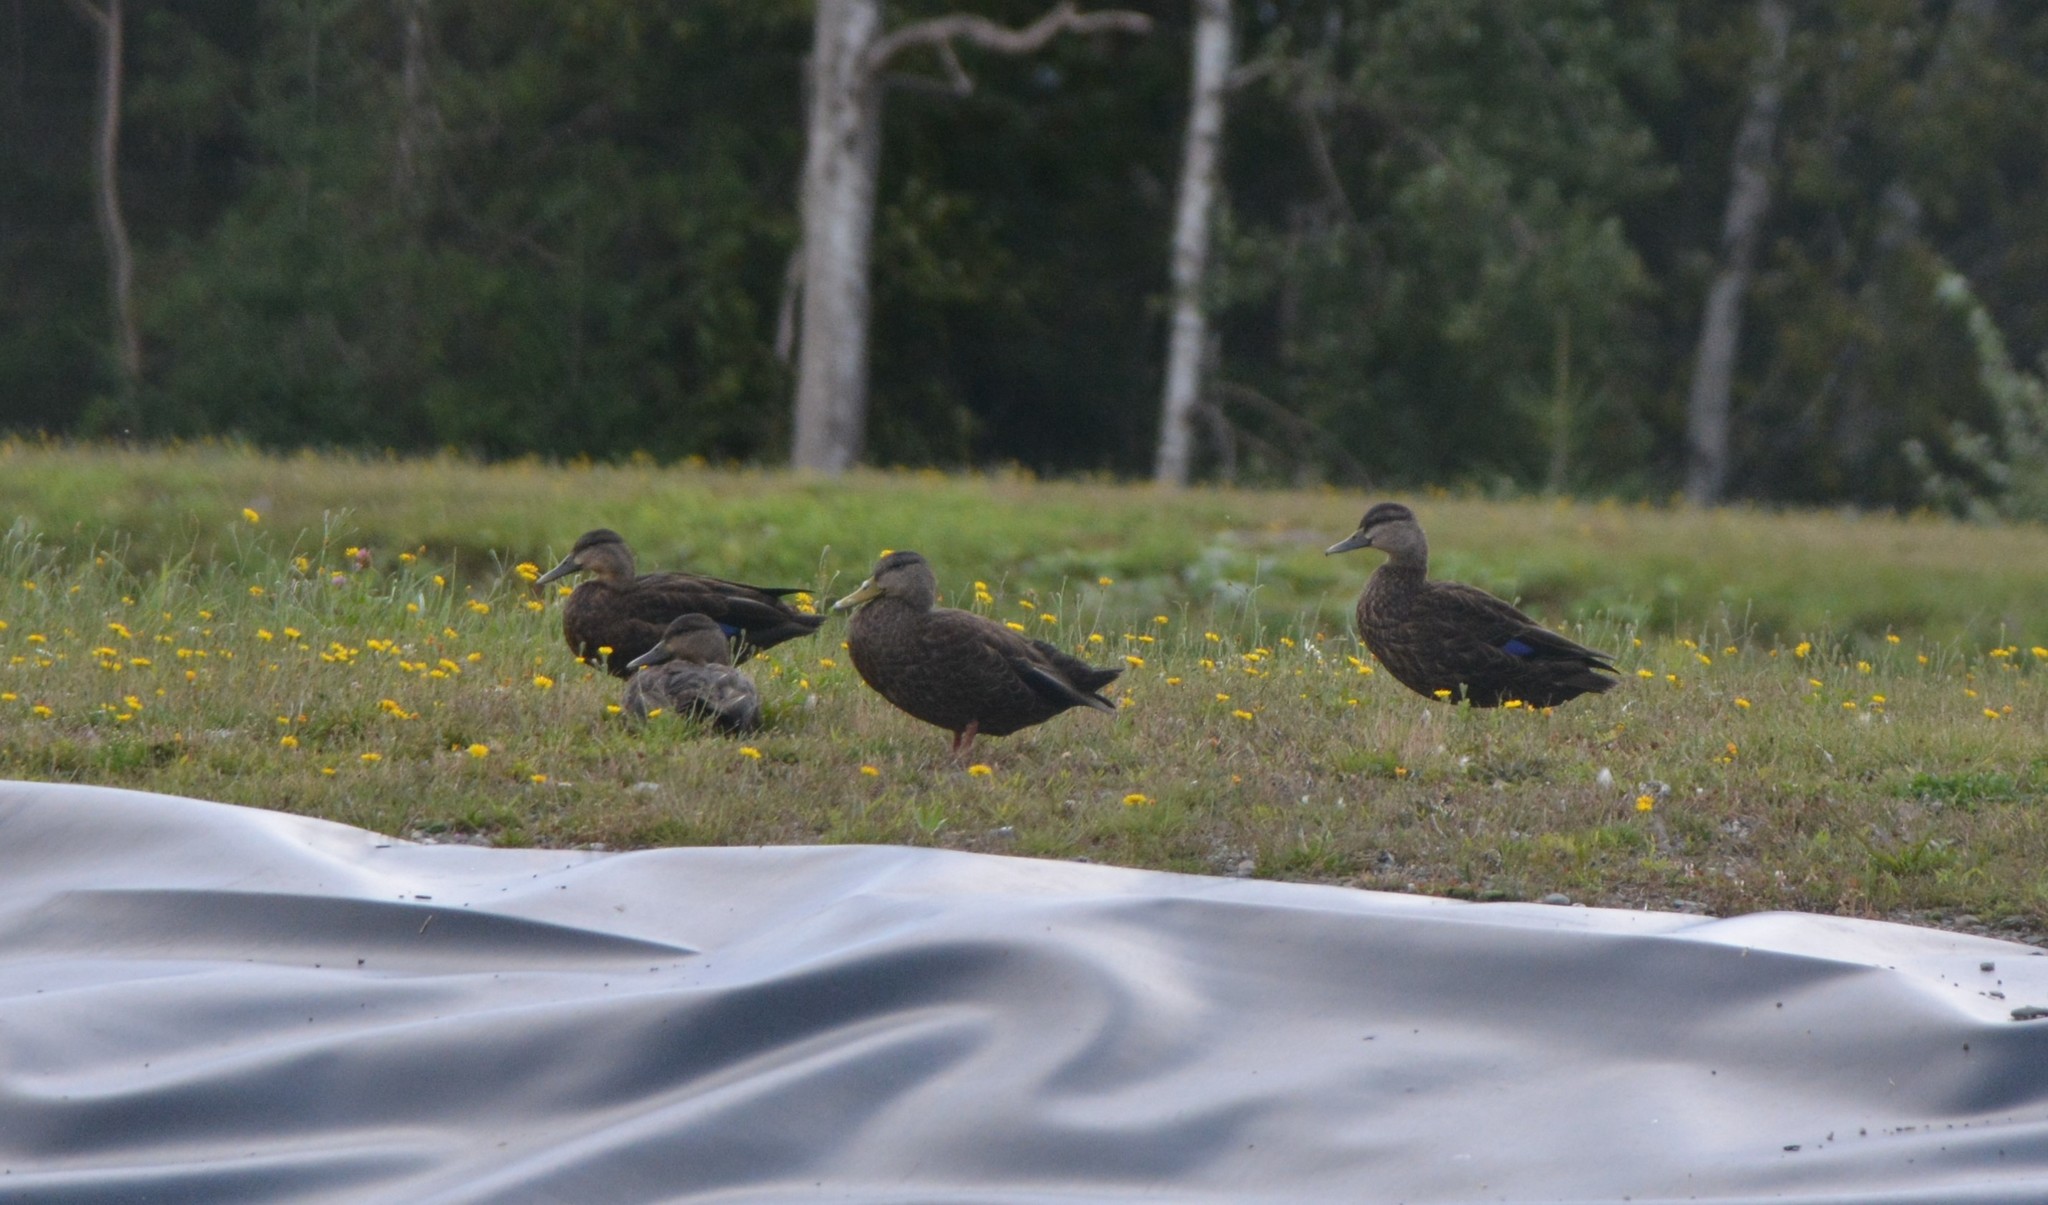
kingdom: Animalia
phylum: Chordata
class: Aves
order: Anseriformes
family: Anatidae
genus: Anas
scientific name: Anas rubripes
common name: American black duck
